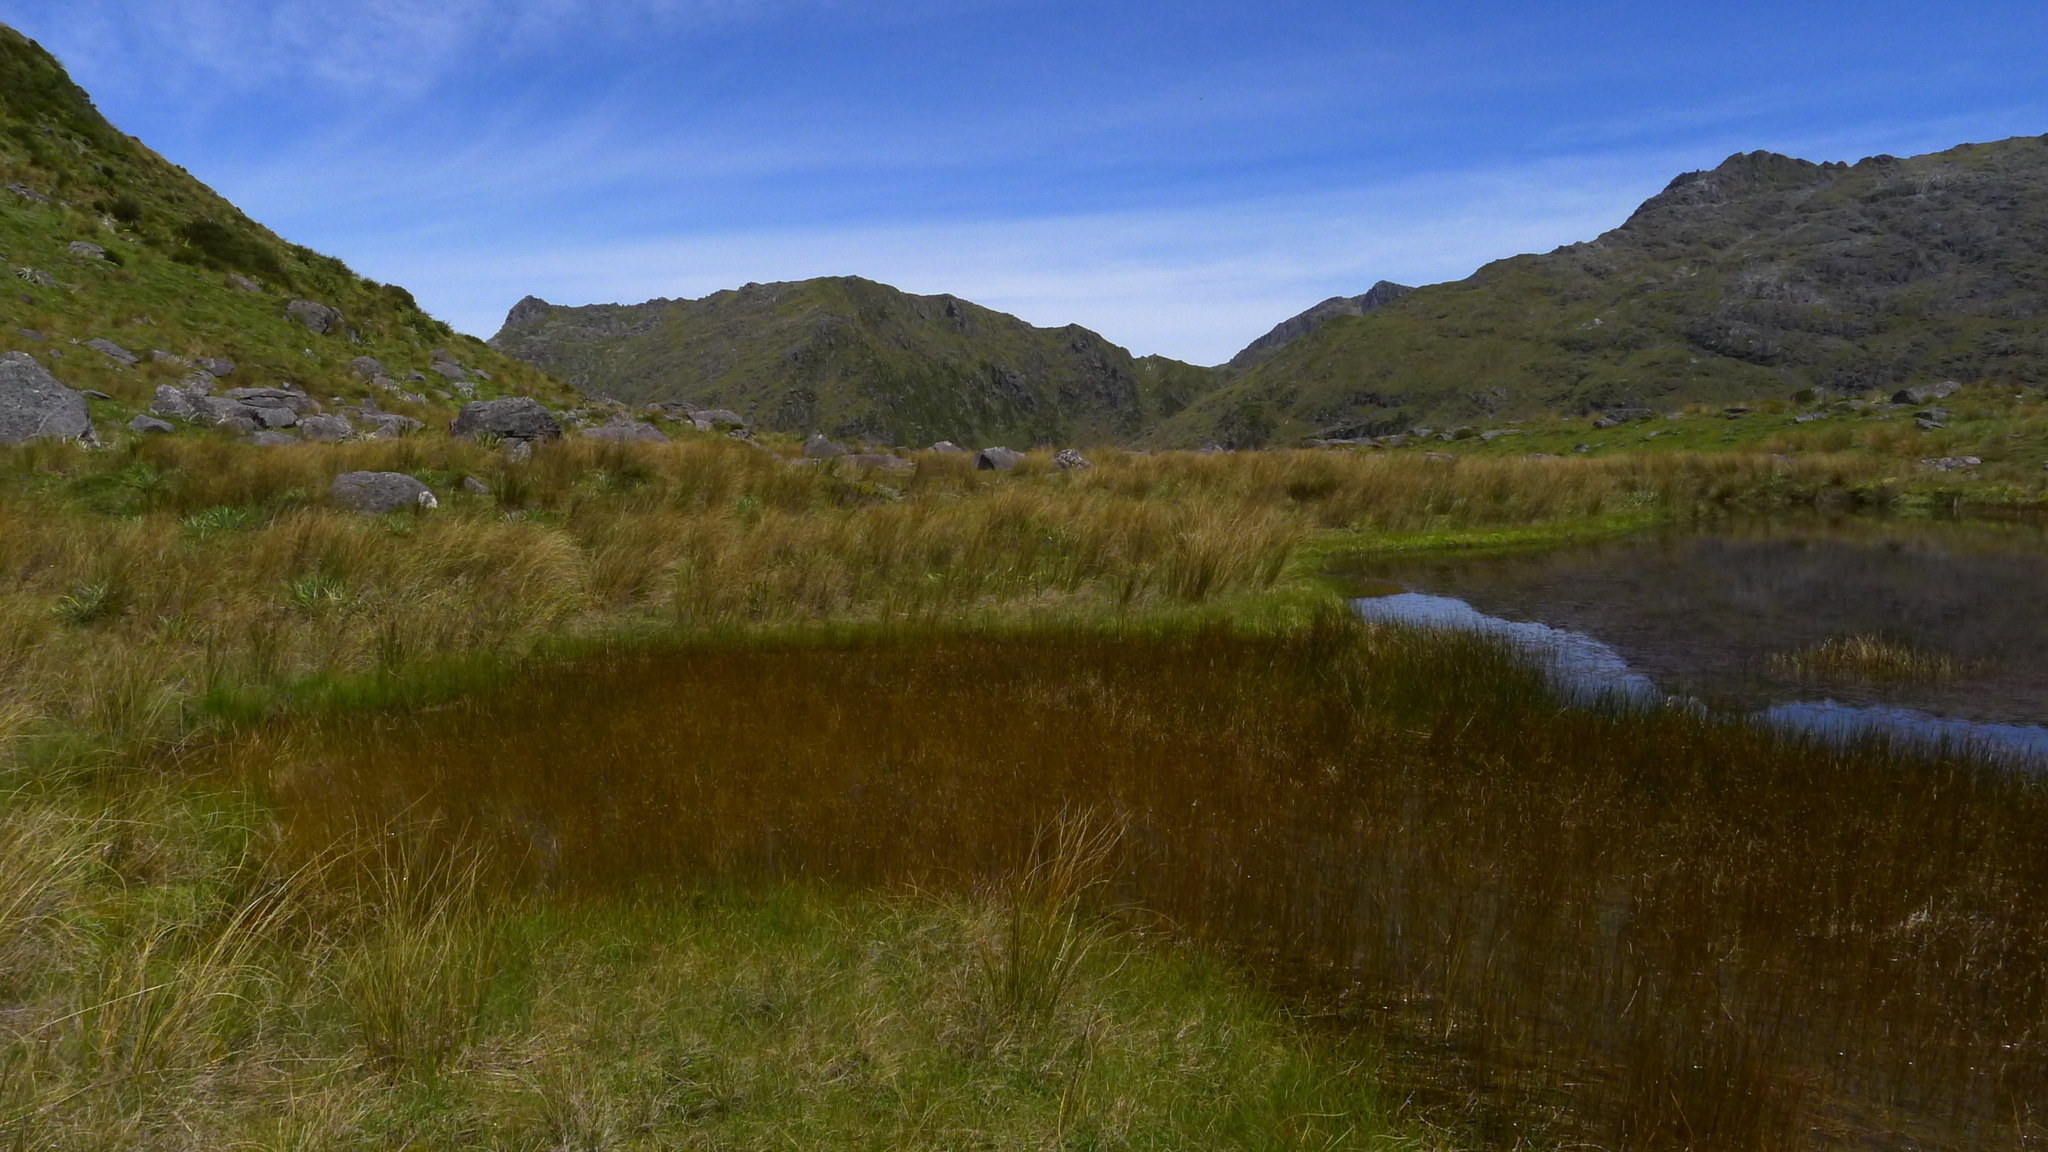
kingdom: Plantae
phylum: Tracheophyta
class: Liliopsida
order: Poales
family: Cyperaceae
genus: Eleocharis
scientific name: Eleocharis acuta
